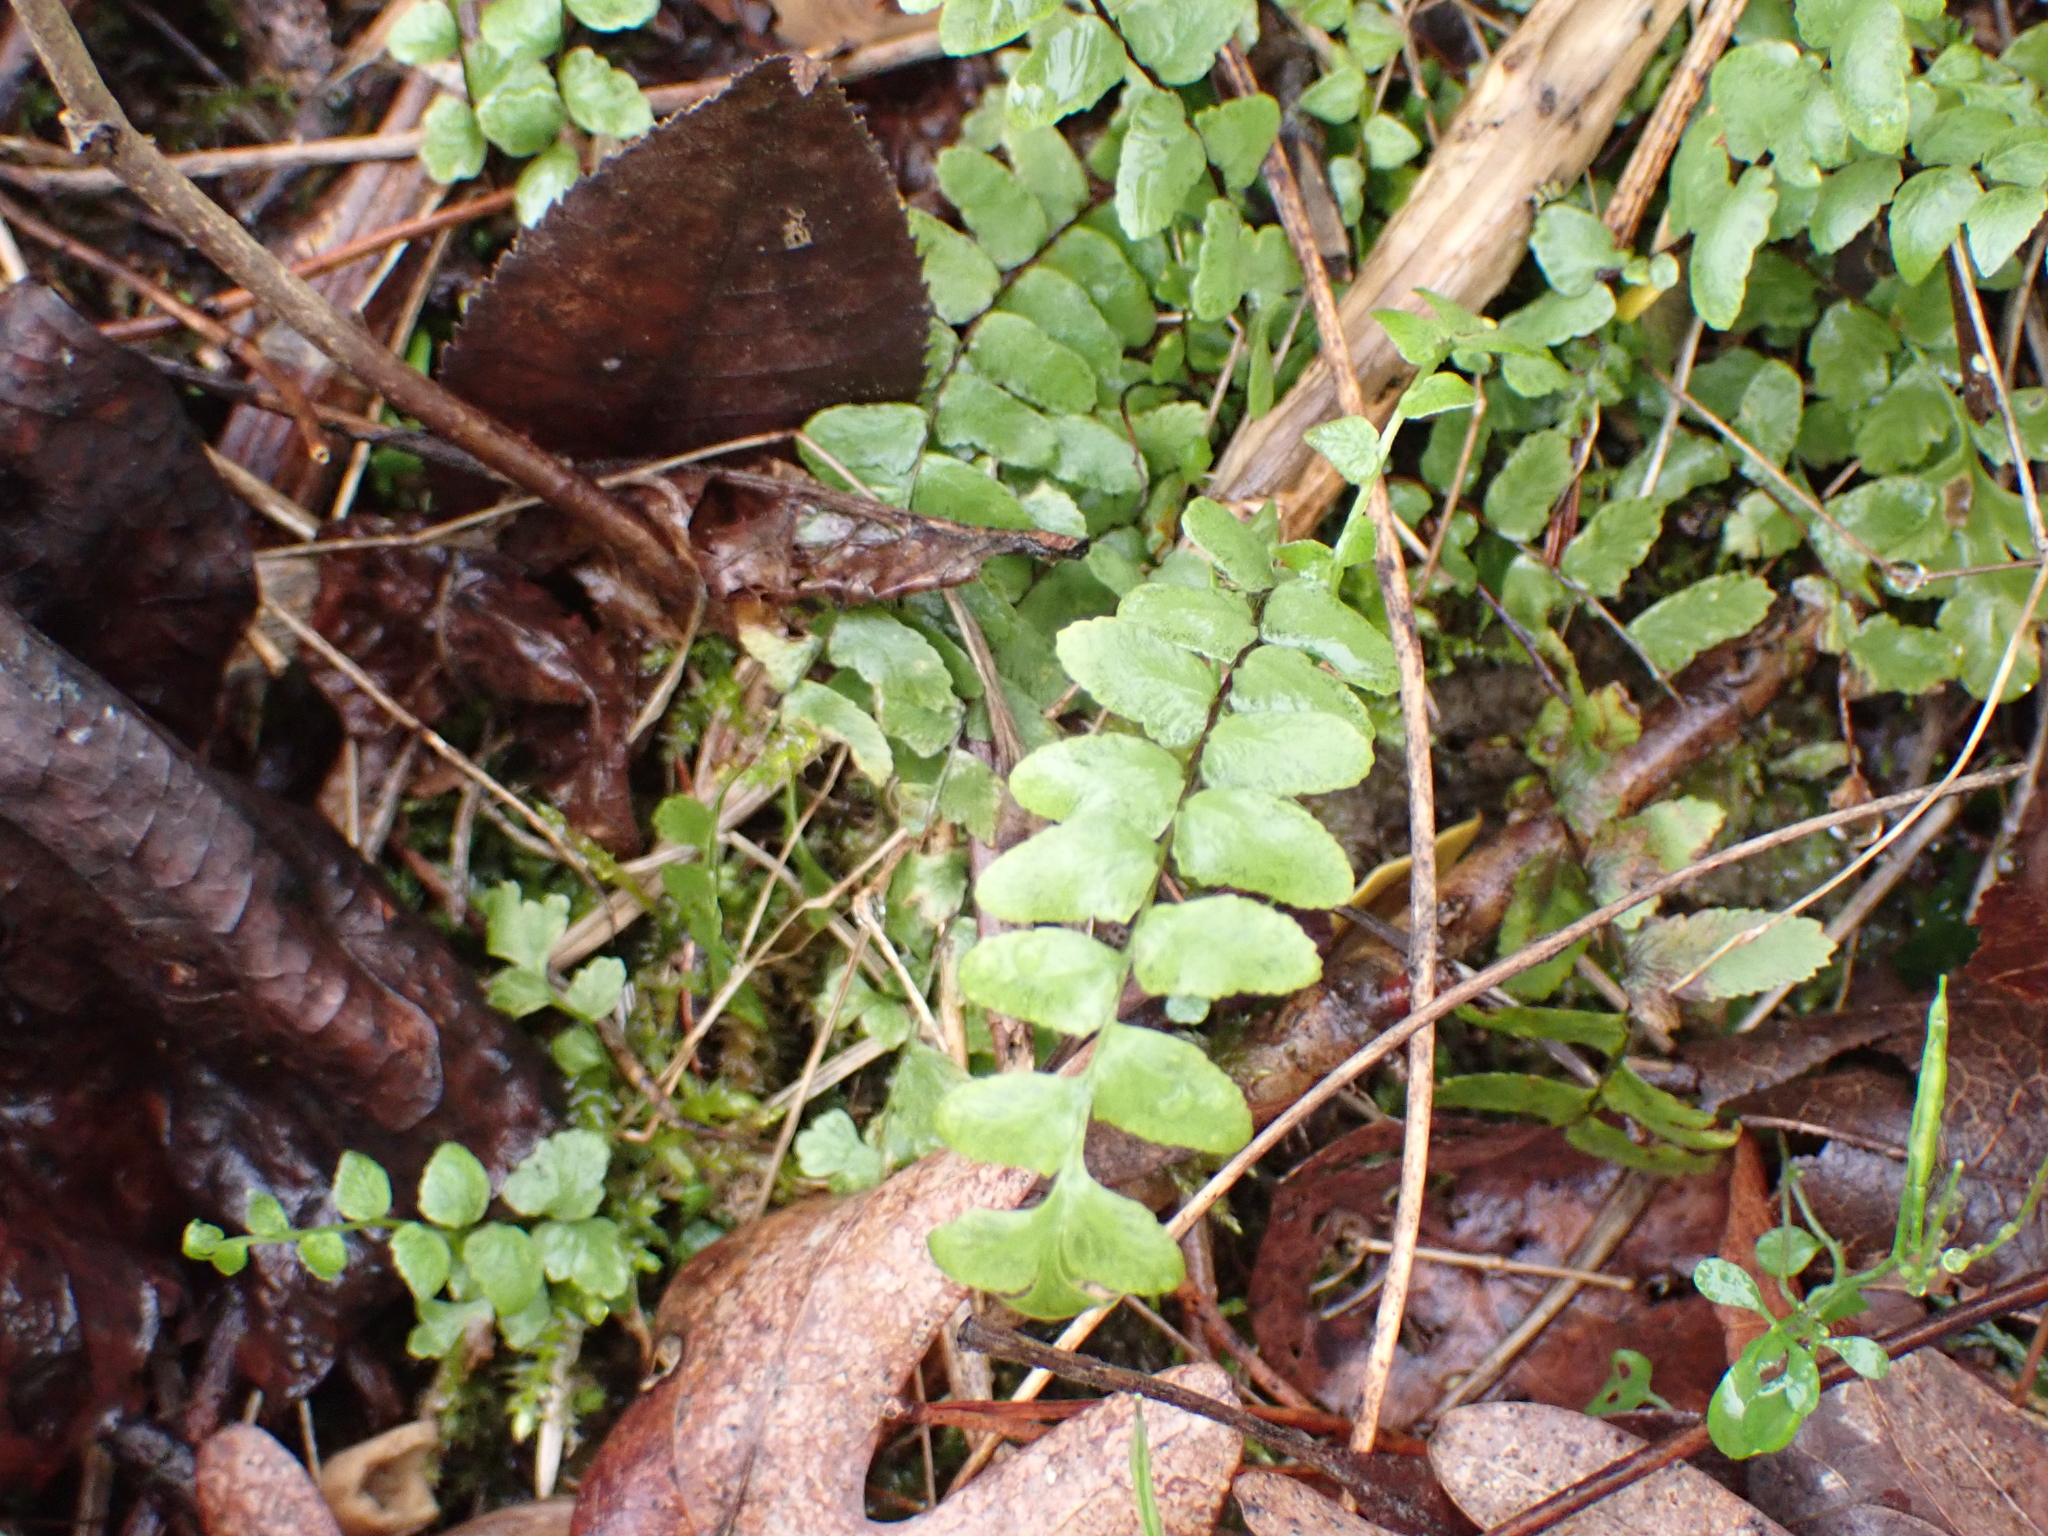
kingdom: Plantae
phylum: Tracheophyta
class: Polypodiopsida
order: Polypodiales
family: Aspleniaceae
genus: Asplenium
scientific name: Asplenium platyneuron
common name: Ebony spleenwort
